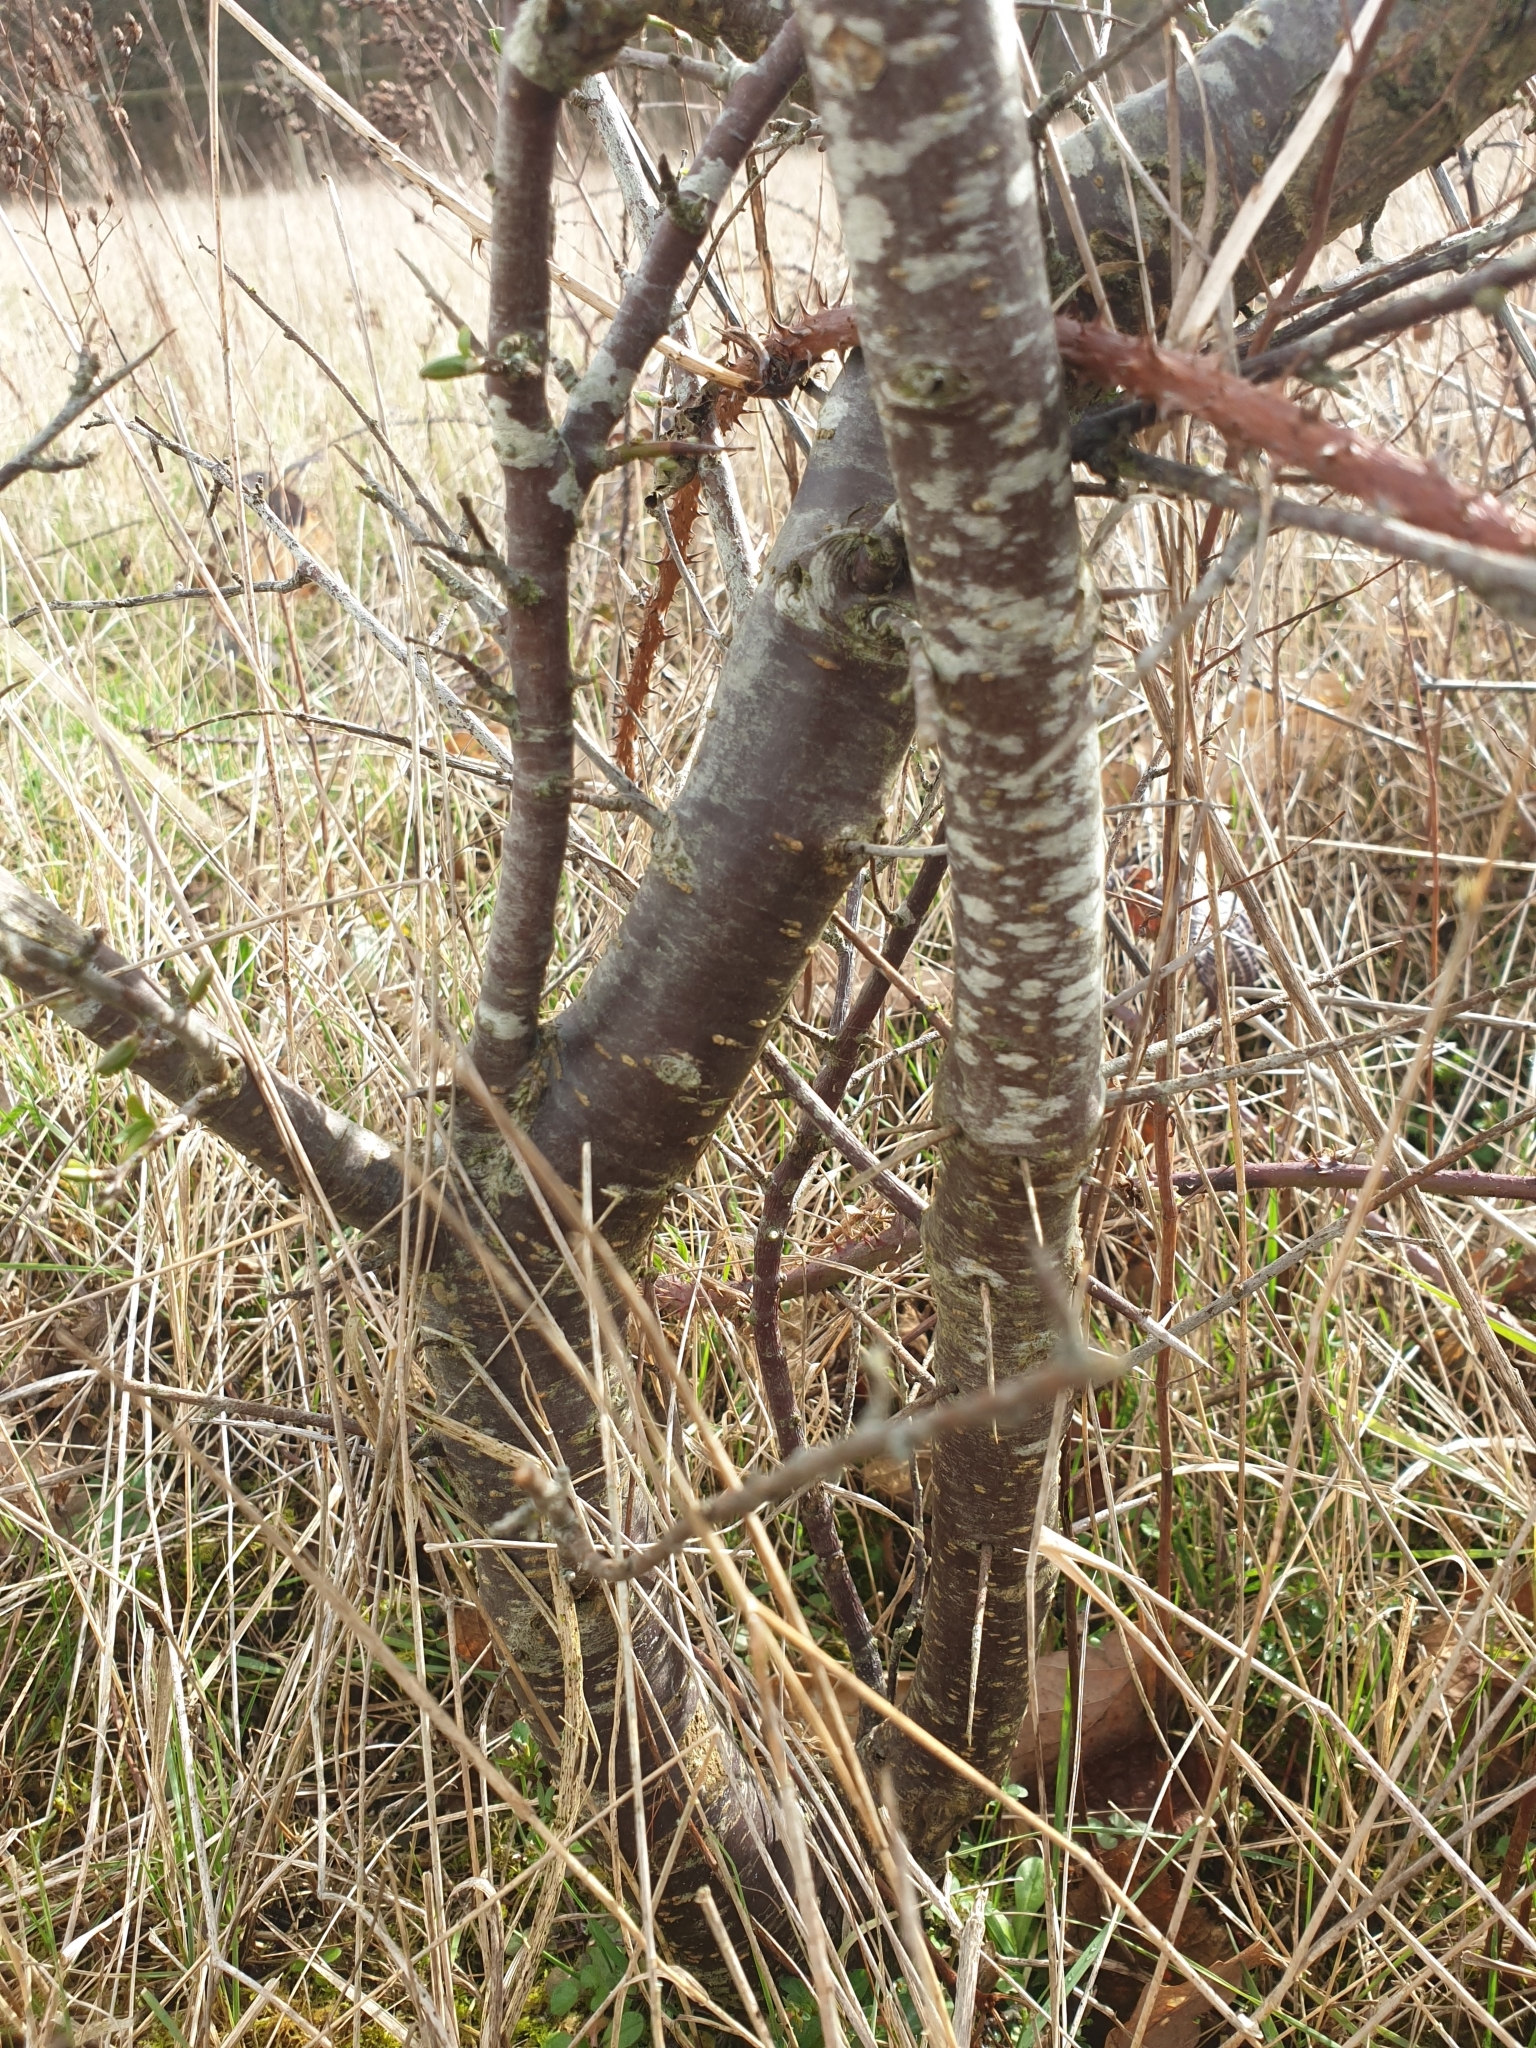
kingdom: Plantae
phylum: Tracheophyta
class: Magnoliopsida
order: Rosales
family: Rosaceae
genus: Prunus
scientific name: Prunus spinosa
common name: Blackthorn
